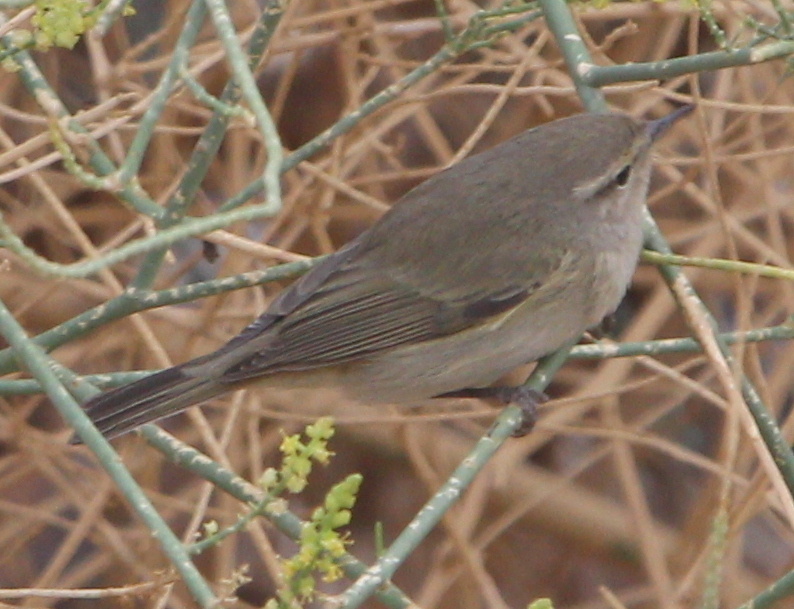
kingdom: Animalia
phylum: Chordata
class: Aves
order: Passeriformes
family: Phylloscopidae
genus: Phylloscopus
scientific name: Phylloscopus collybita
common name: Common chiffchaff
